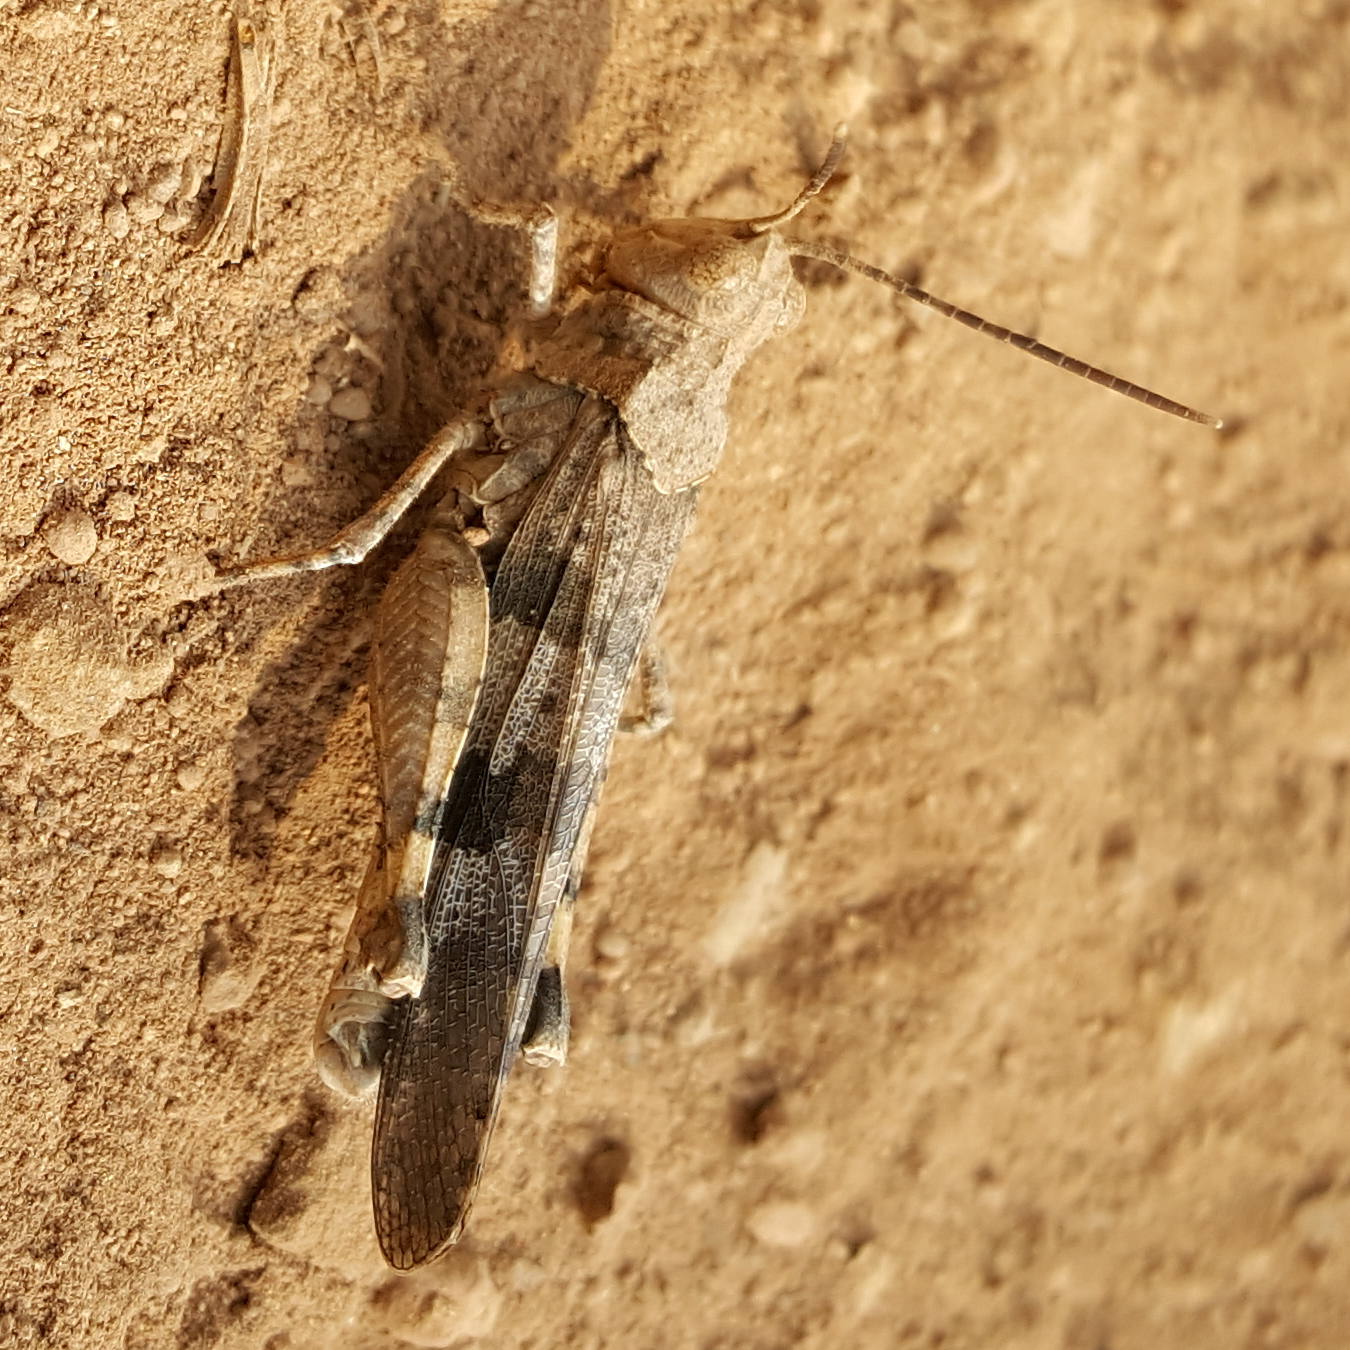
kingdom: Animalia
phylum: Arthropoda
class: Insecta
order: Orthoptera
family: Acrididae
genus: Trimerotropis
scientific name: Trimerotropis fontana
